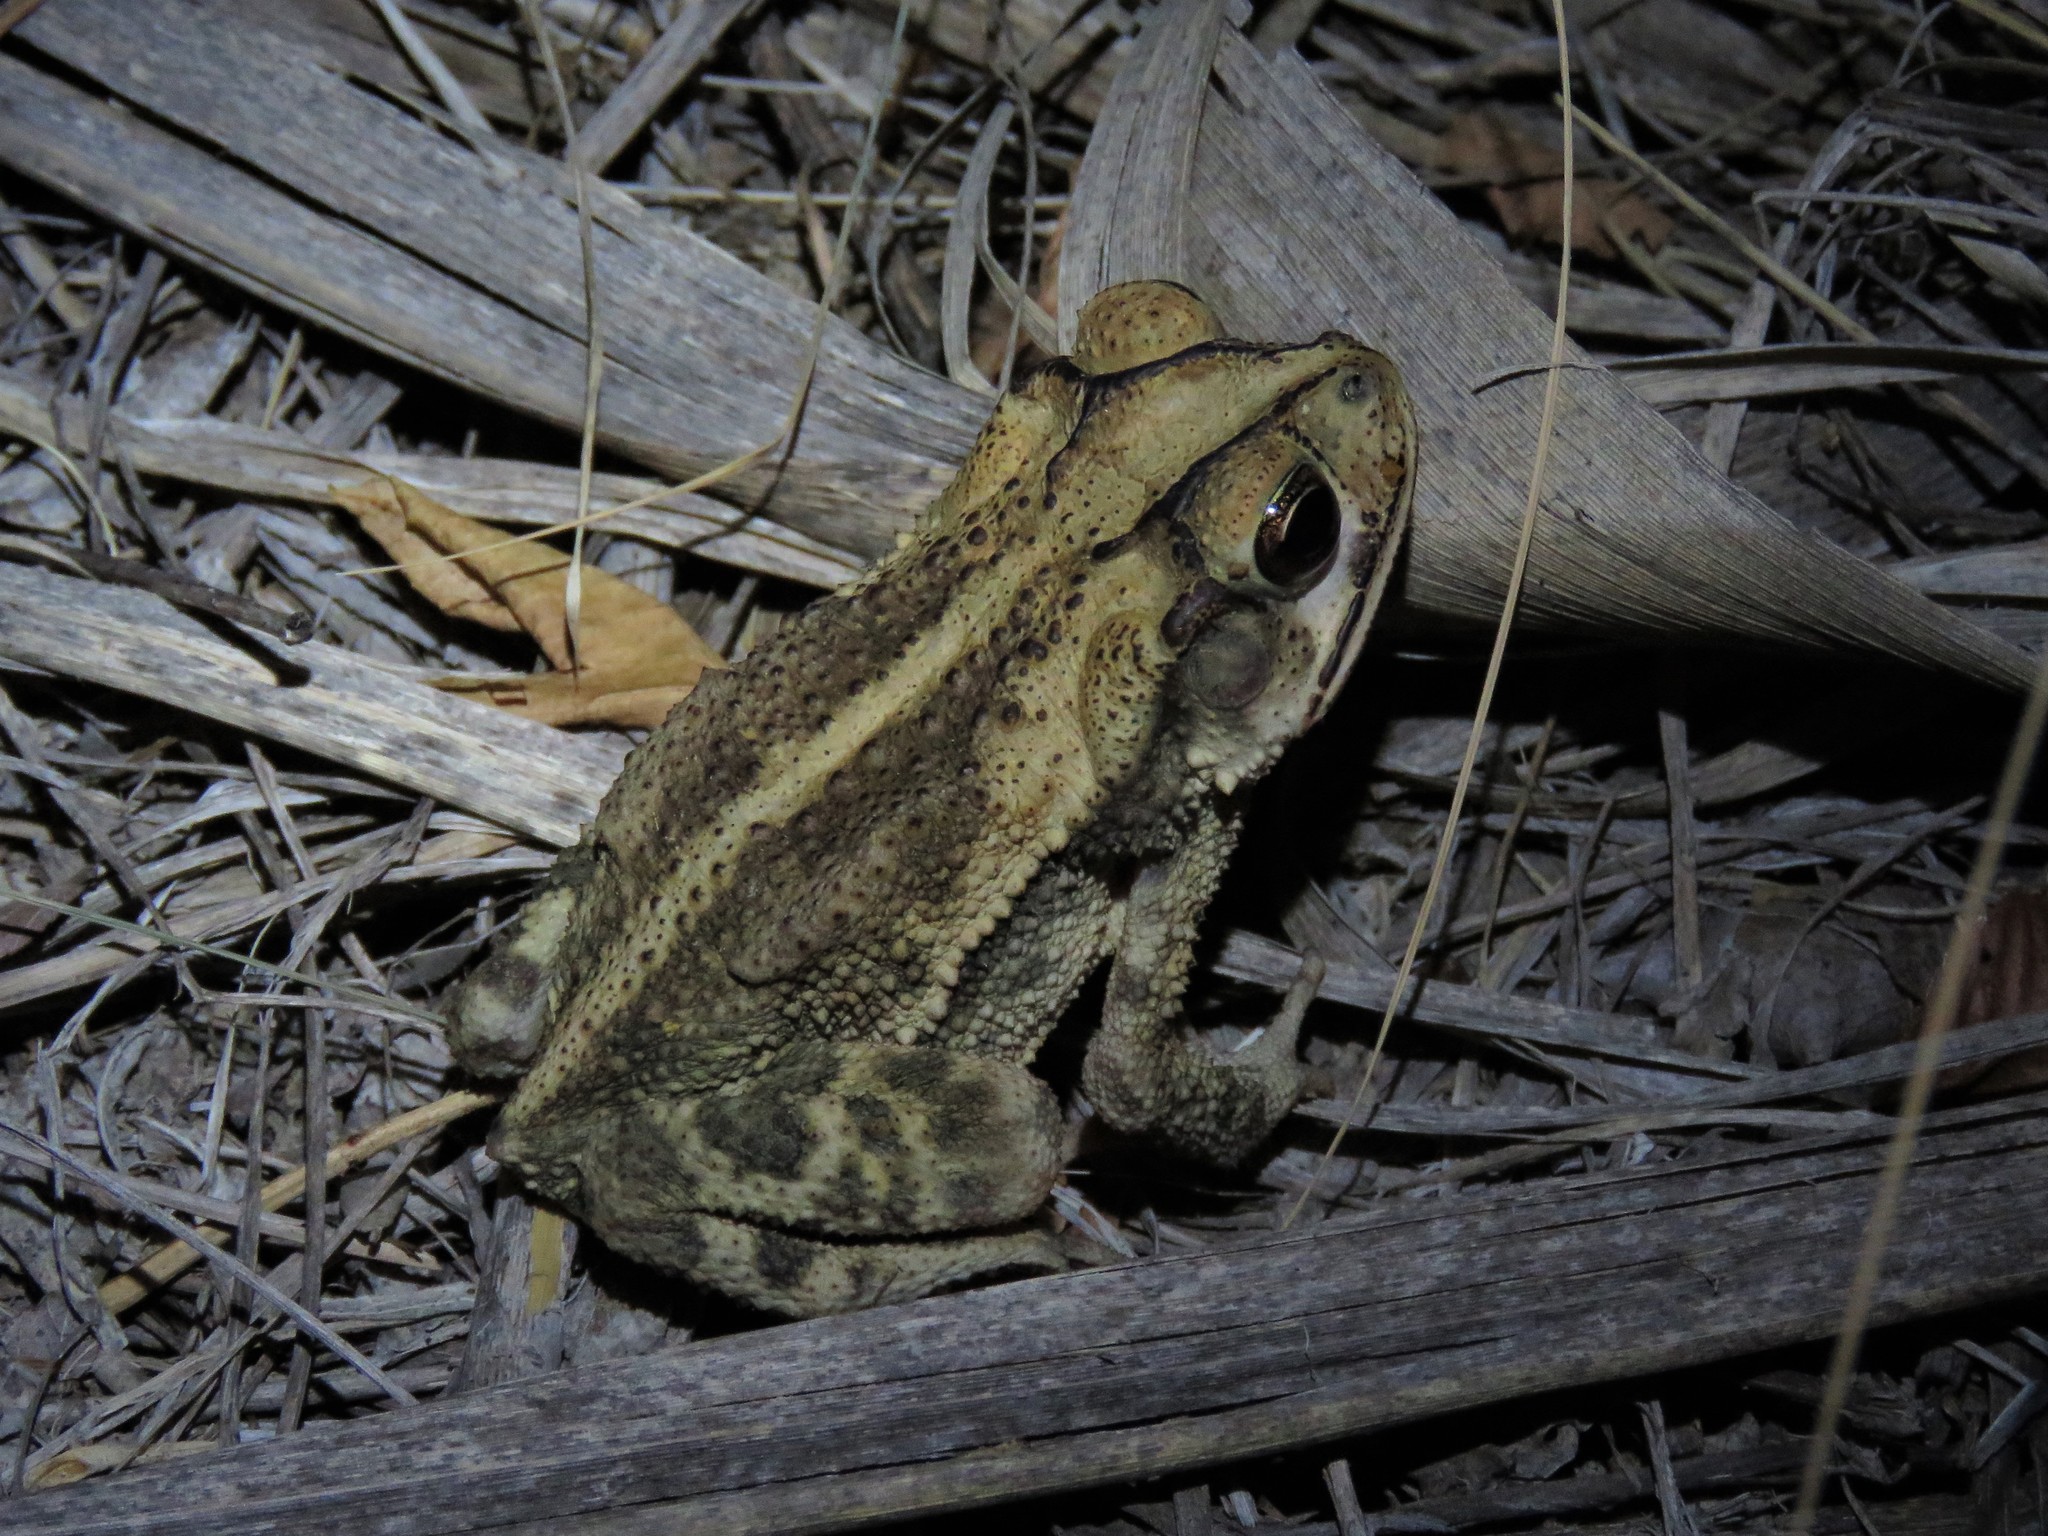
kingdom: Animalia
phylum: Chordata
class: Amphibia
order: Anura
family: Bufonidae
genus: Incilius
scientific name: Incilius nebulifer
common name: Gulf coast toad
